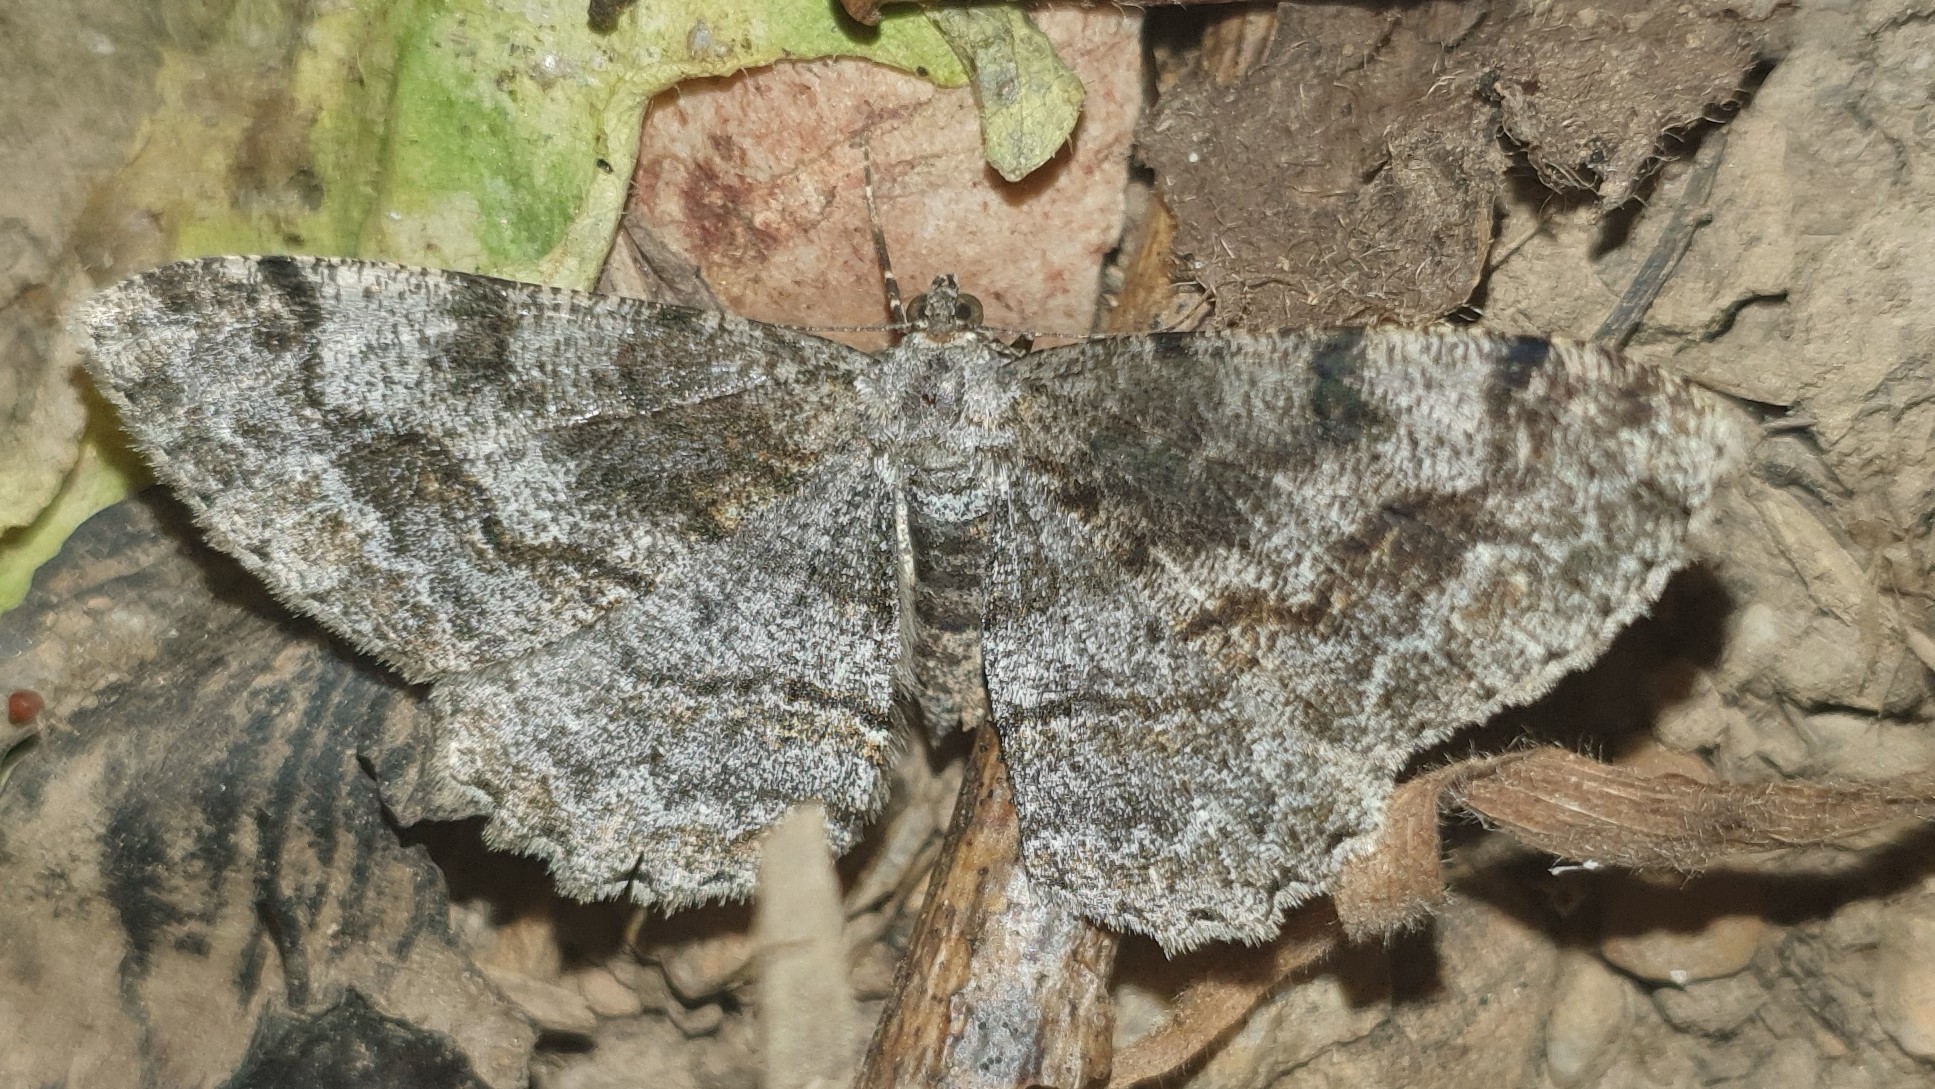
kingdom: Animalia
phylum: Arthropoda
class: Insecta
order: Lepidoptera
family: Geometridae
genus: Alcis
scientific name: Alcis repandata
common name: Mottled beauty
